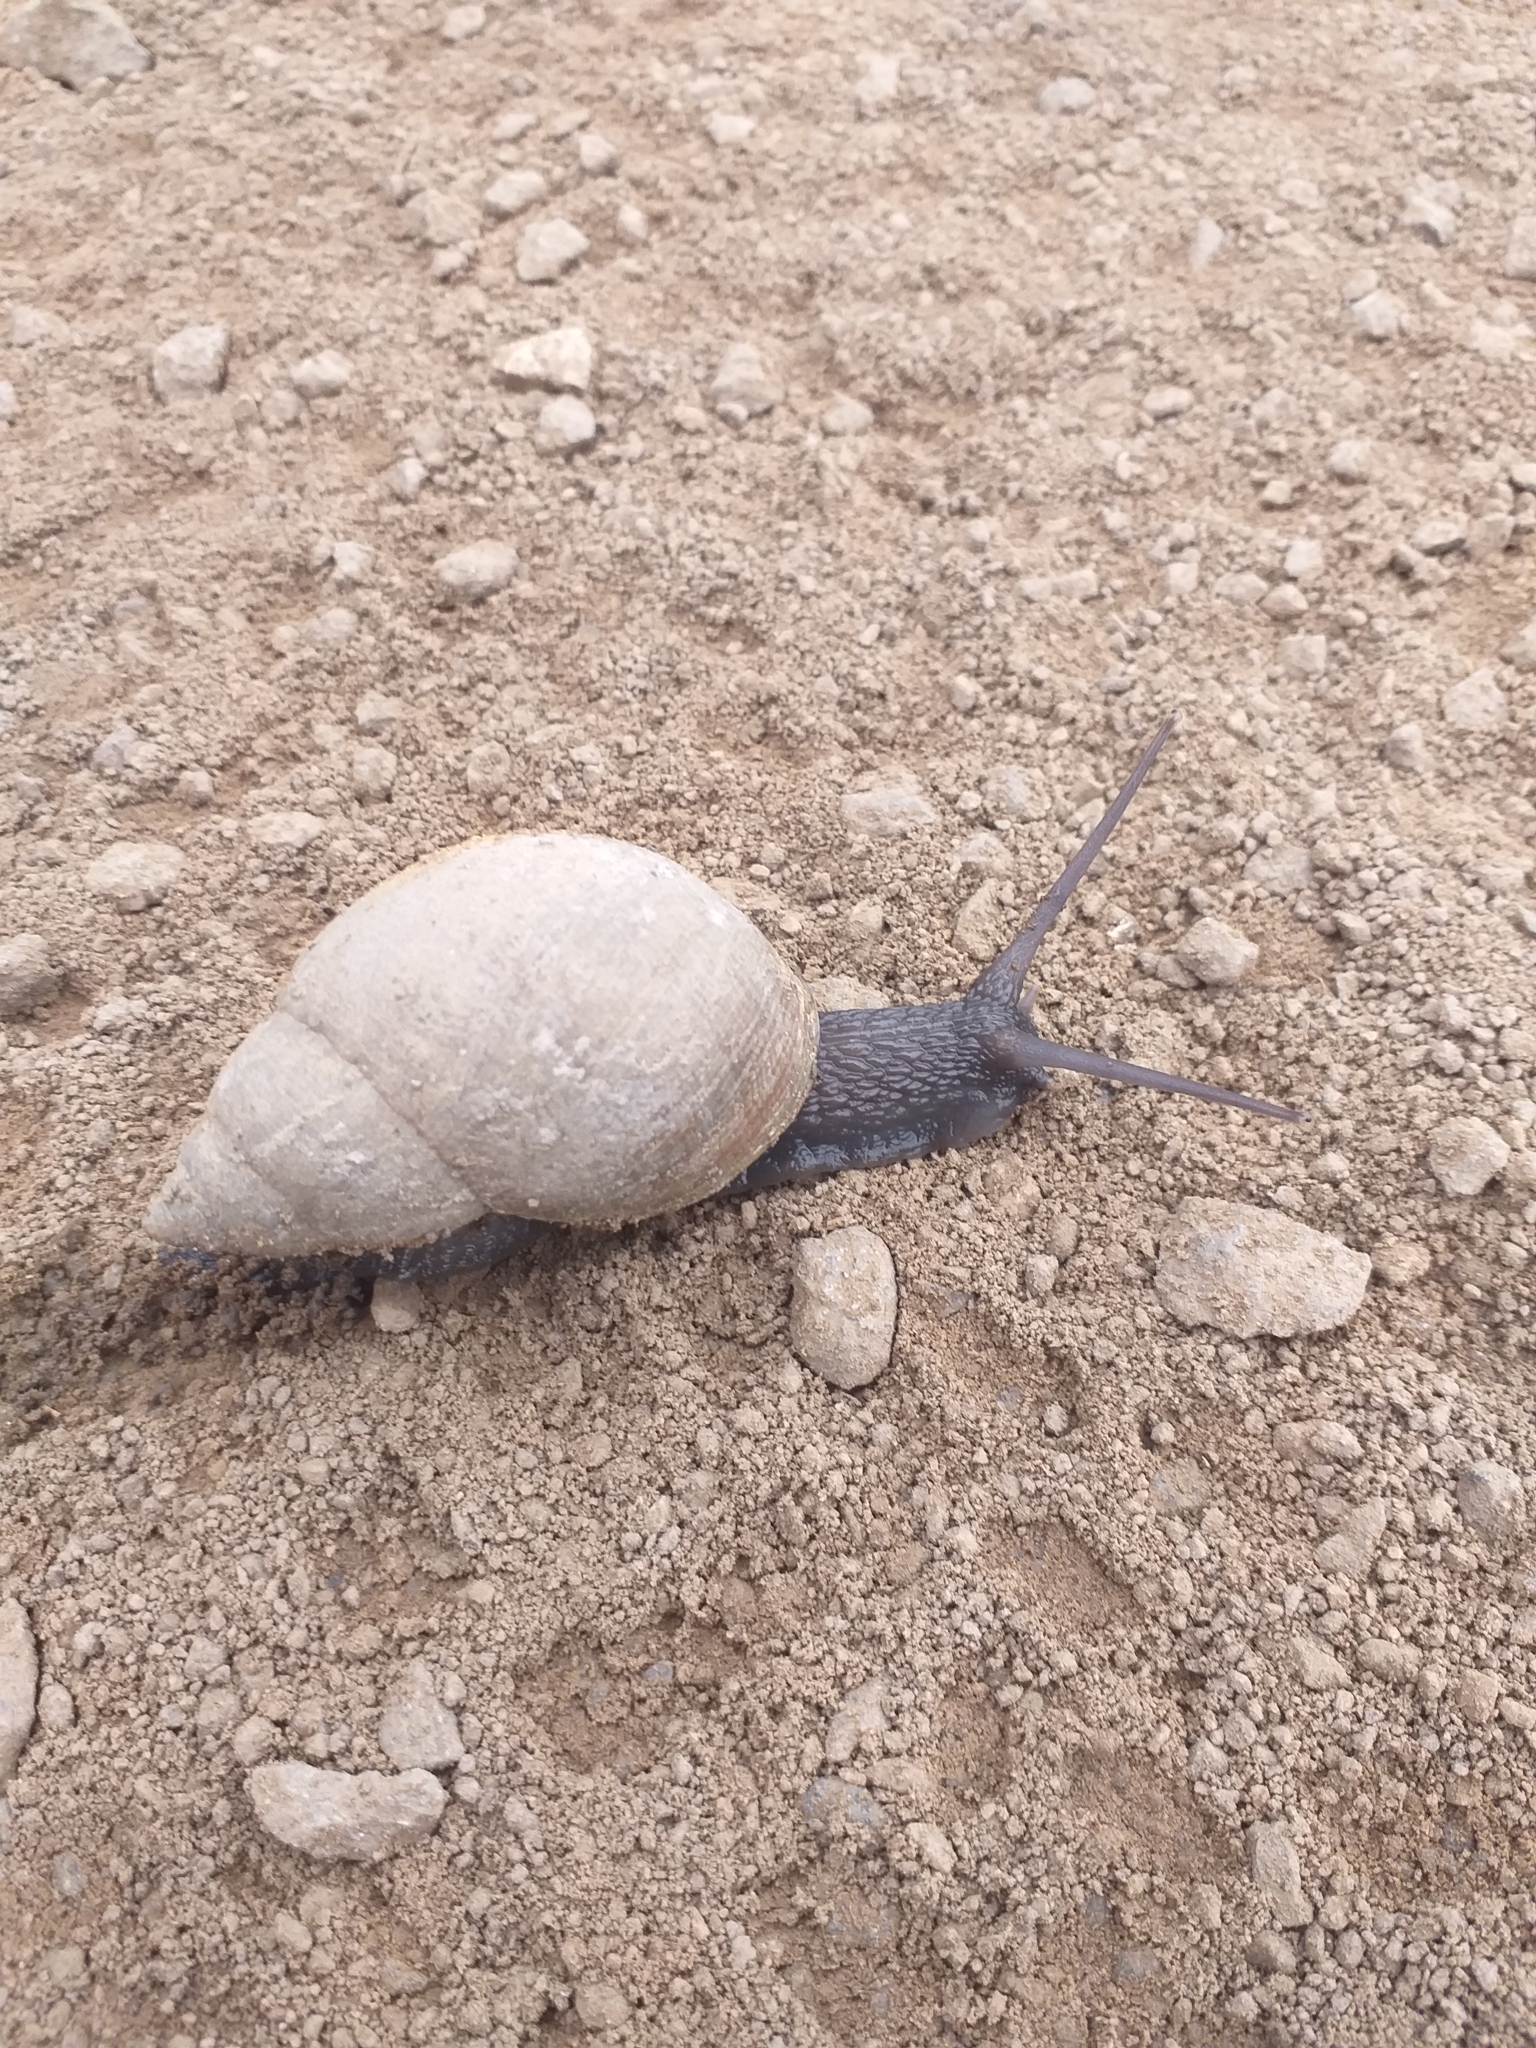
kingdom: Animalia
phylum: Mollusca
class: Gastropoda
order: Stylommatophora
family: Bulimulidae
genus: Scutalus
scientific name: Scutalus versicolor
